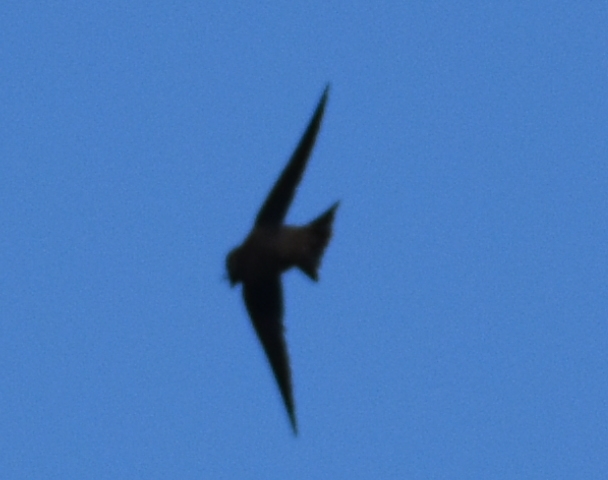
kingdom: Animalia
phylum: Chordata
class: Aves
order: Passeriformes
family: Hirundinidae
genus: Riparia
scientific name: Riparia riparia
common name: Sand martin
